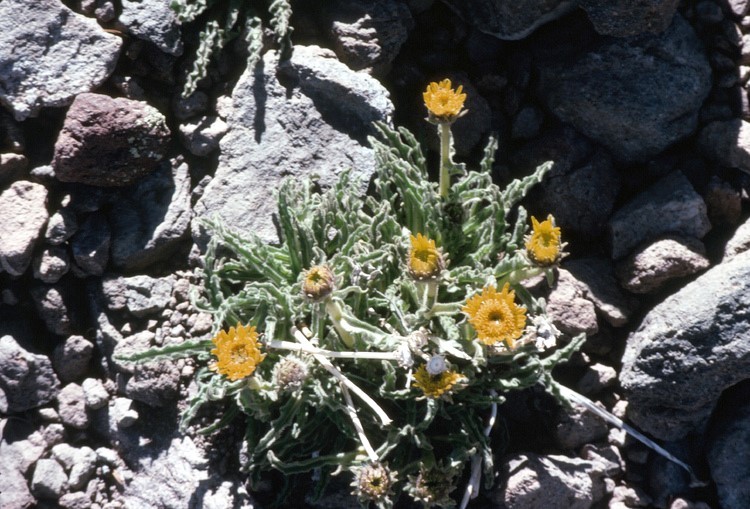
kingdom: Plantae
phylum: Tracheophyta
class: Magnoliopsida
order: Asterales
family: Asteraceae
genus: Hulsea
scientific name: Hulsea algida
